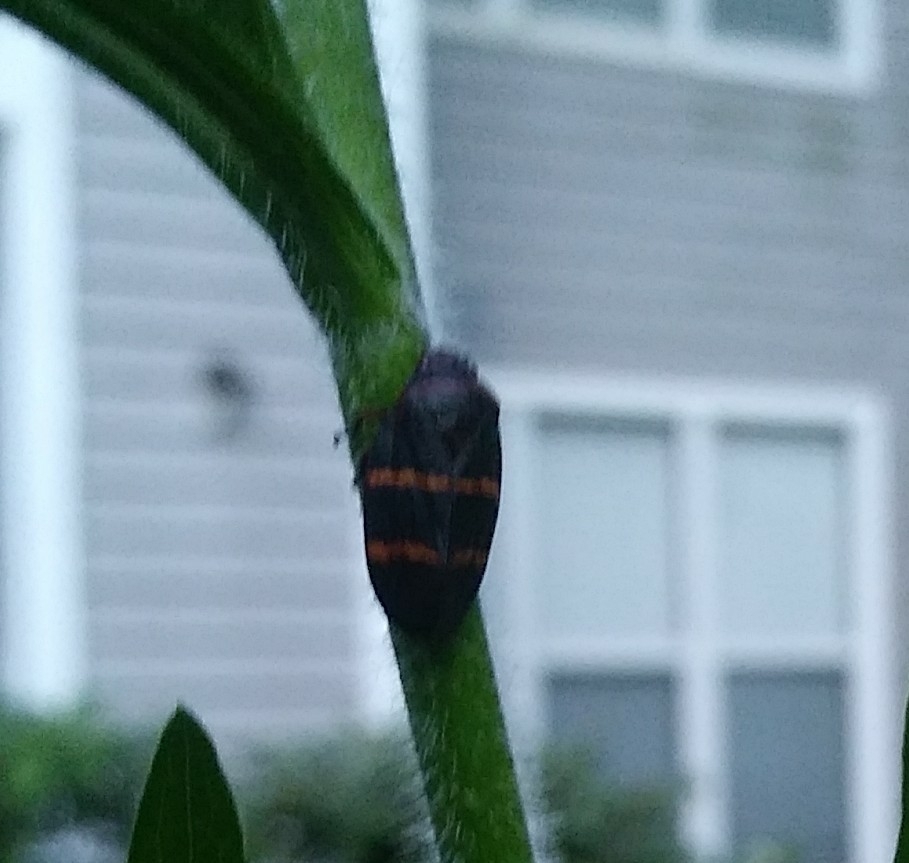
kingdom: Animalia
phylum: Arthropoda
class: Insecta
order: Hemiptera
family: Cercopidae
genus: Prosapia
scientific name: Prosapia bicincta
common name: Twolined spittlebug
